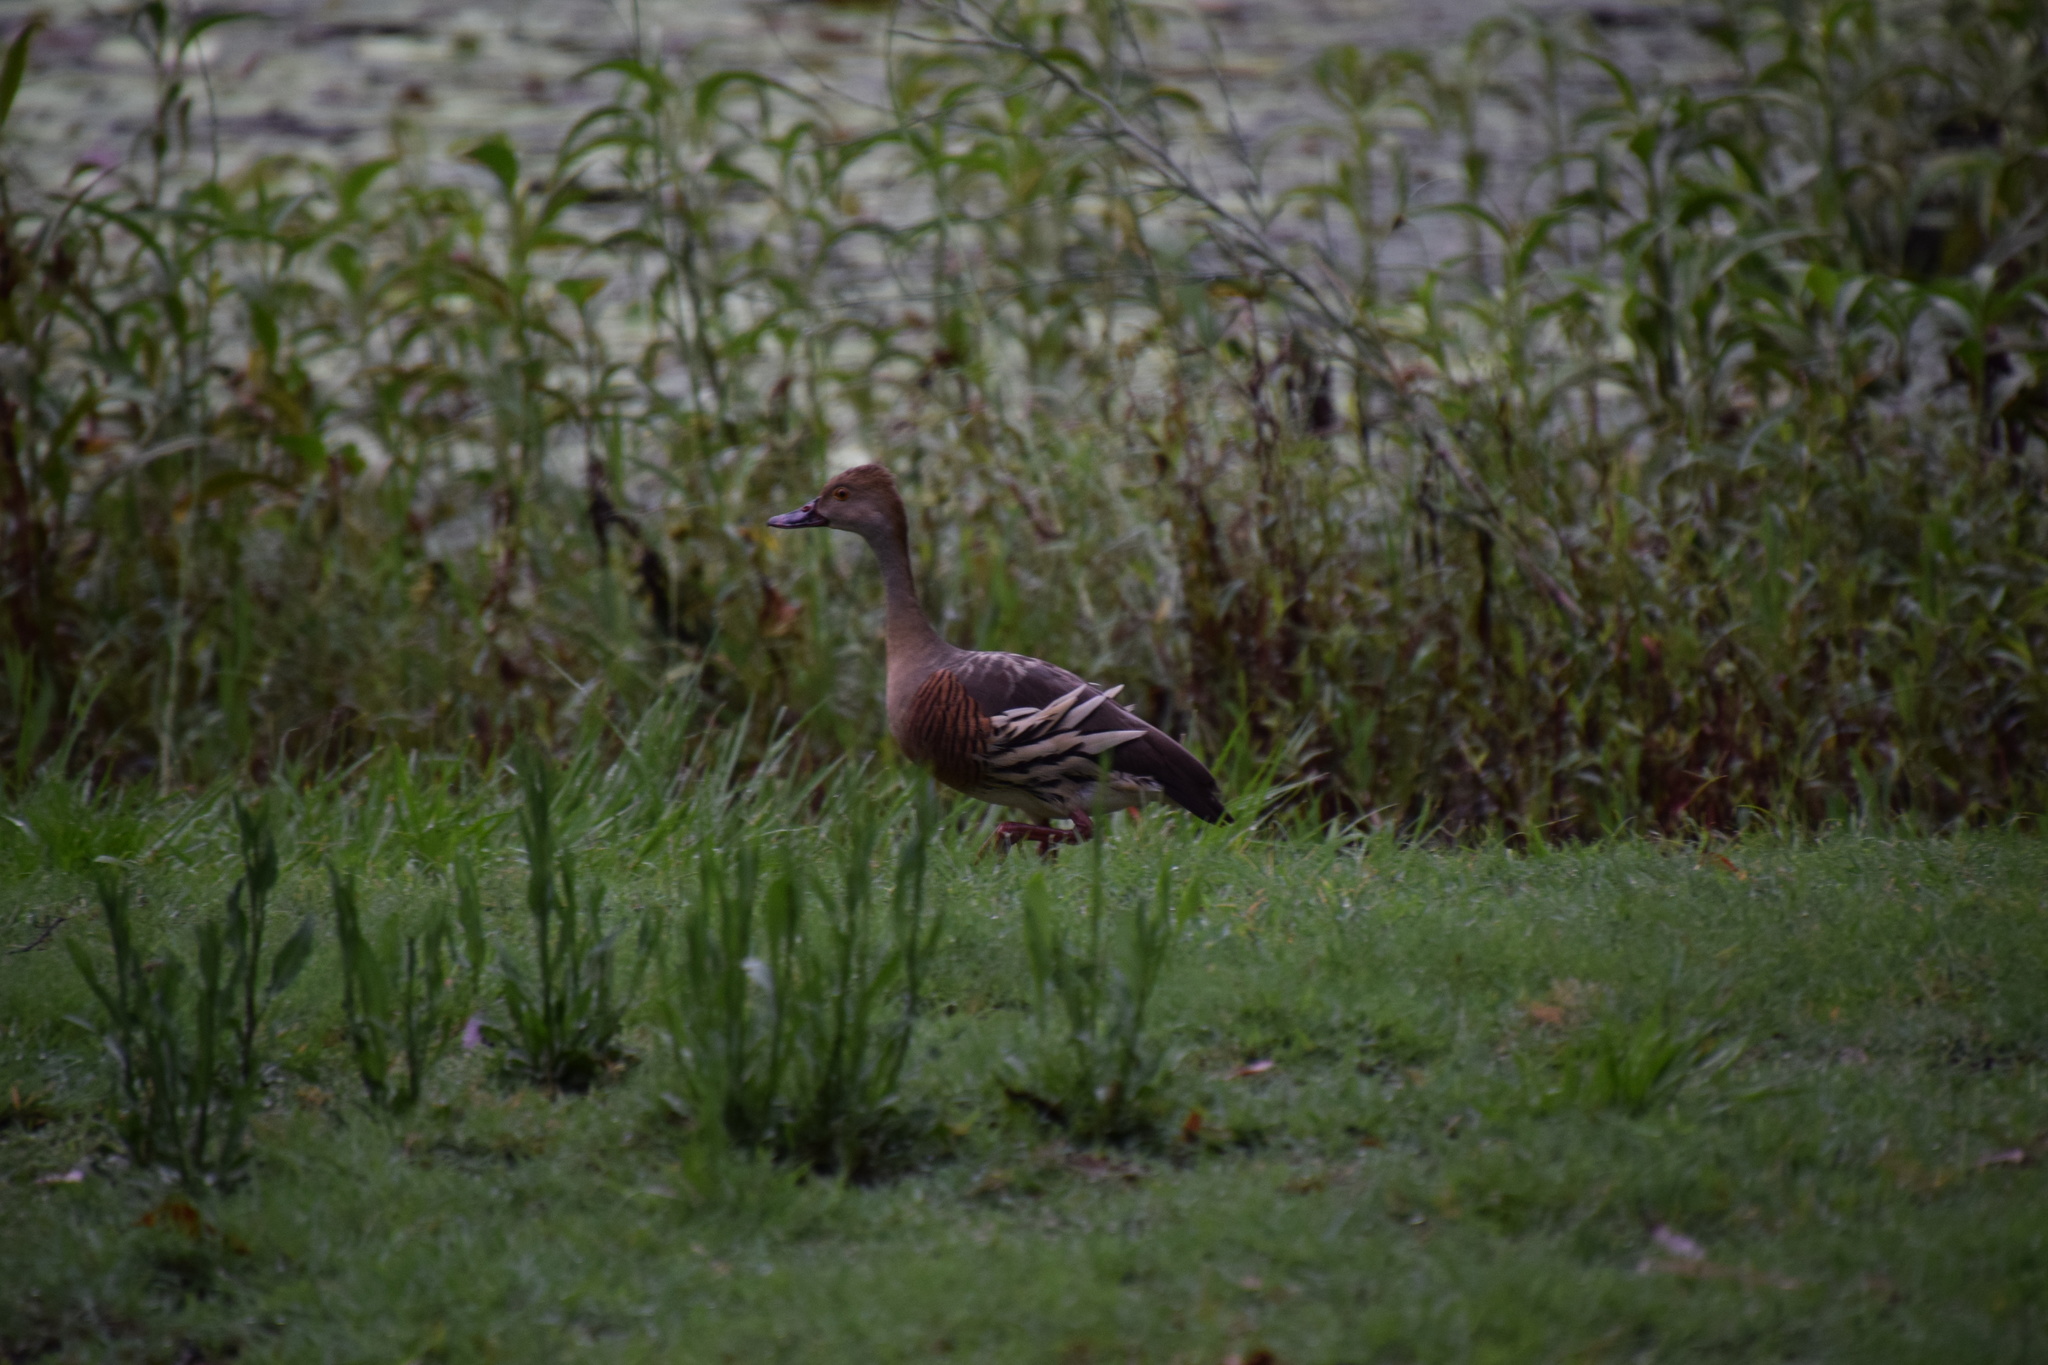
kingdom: Animalia
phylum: Chordata
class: Aves
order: Anseriformes
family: Anatidae
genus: Dendrocygna
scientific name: Dendrocygna eytoni
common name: Plumed whistling-duck
